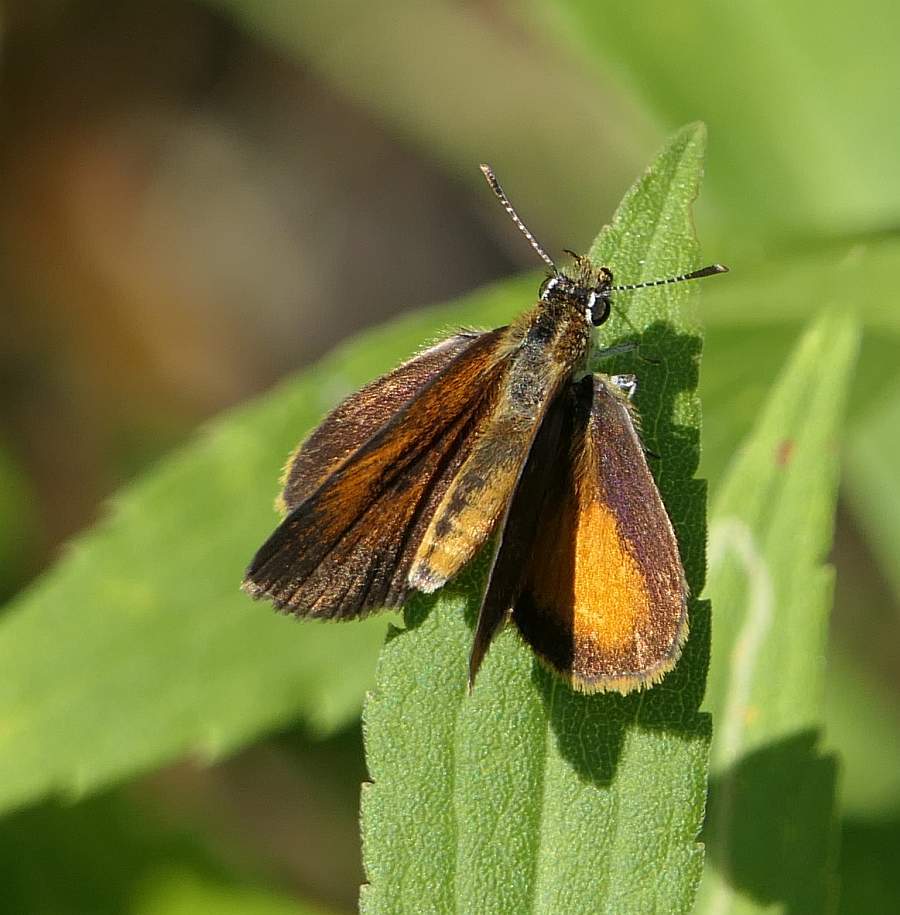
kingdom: Animalia
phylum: Arthropoda
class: Insecta
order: Lepidoptera
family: Hesperiidae
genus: Ancyloxypha
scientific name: Ancyloxypha numitor
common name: Least skipper
